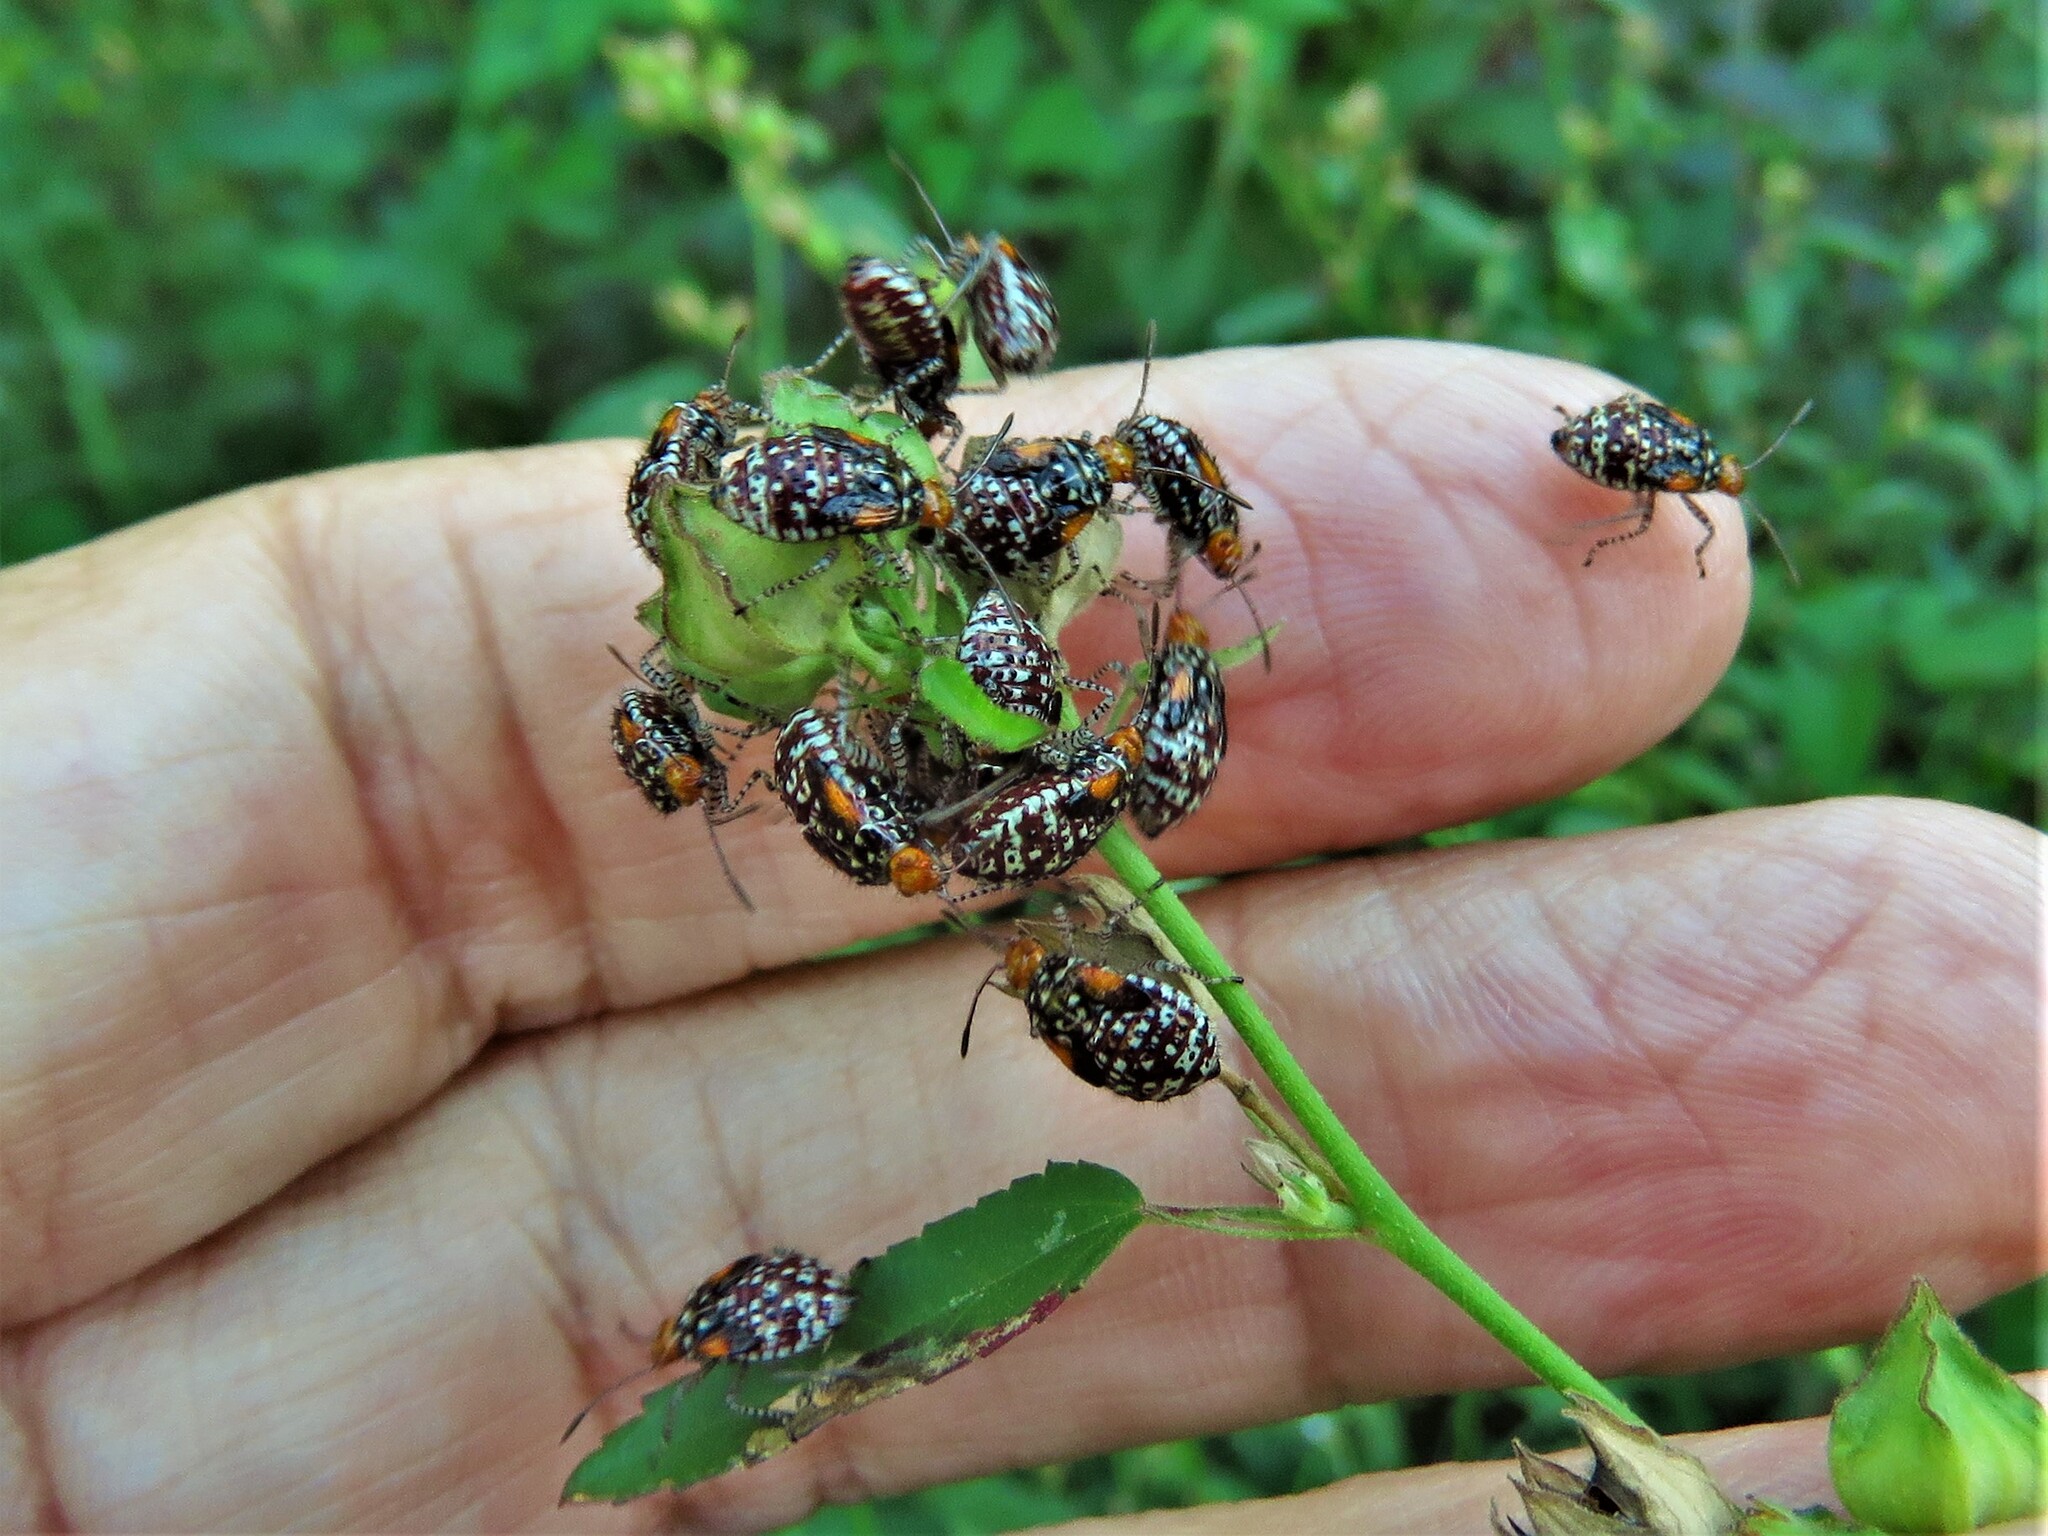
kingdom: Animalia
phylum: Arthropoda
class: Insecta
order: Hemiptera
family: Rhopalidae
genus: Niesthrea
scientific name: Niesthrea louisianica
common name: Scentless plant bug
